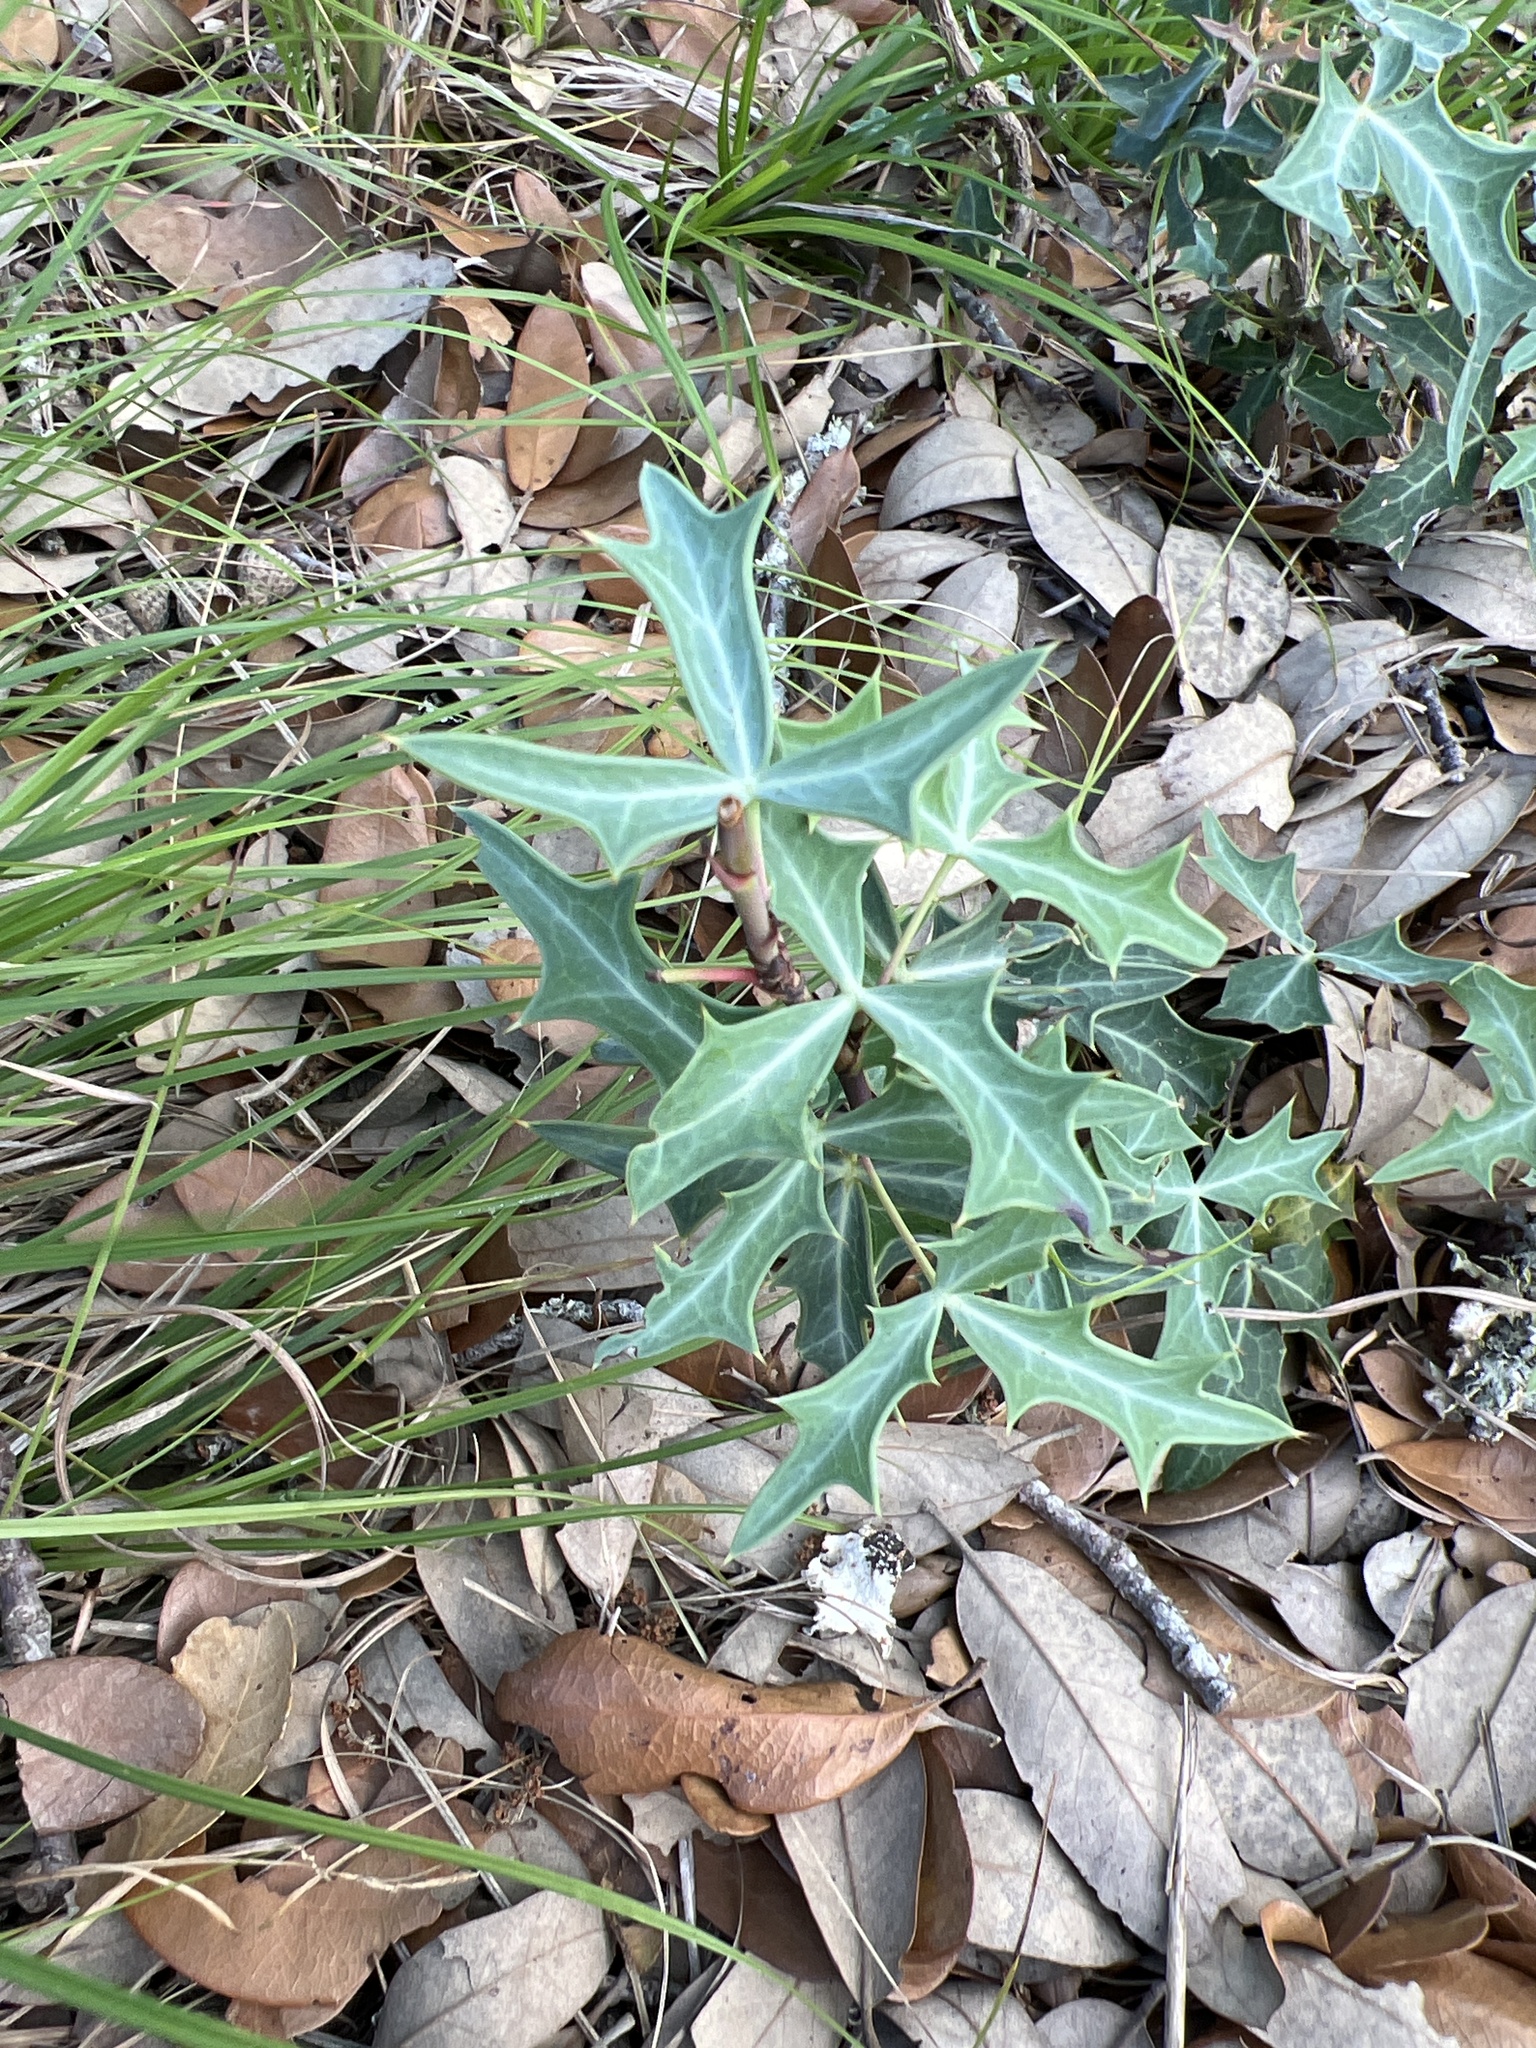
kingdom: Plantae
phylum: Tracheophyta
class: Magnoliopsida
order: Ranunculales
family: Berberidaceae
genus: Alloberberis
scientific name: Alloberberis trifoliolata
